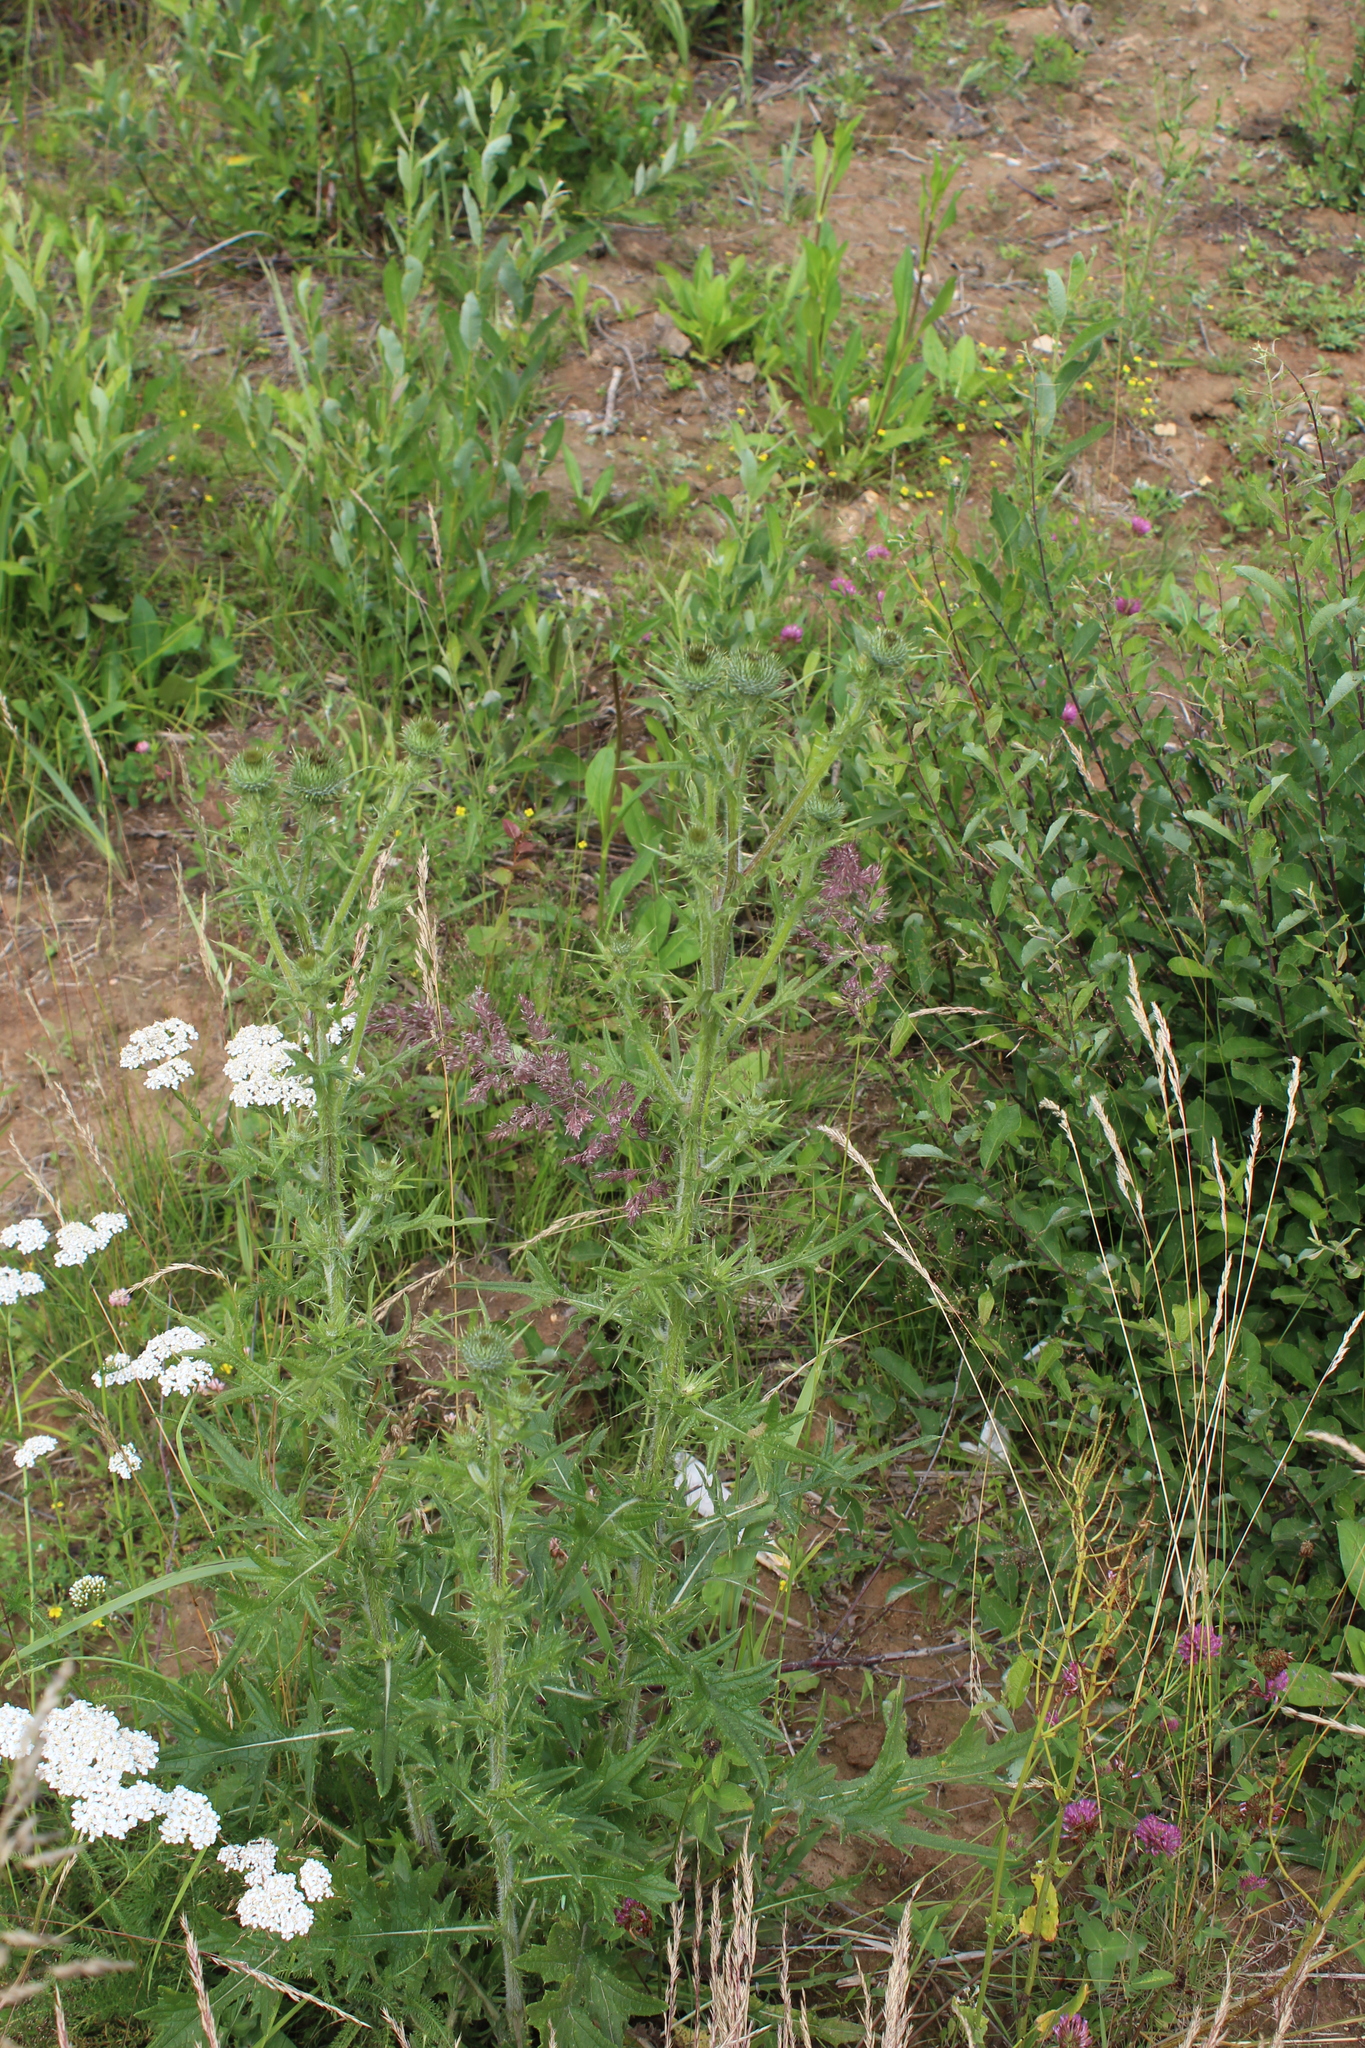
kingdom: Plantae
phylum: Tracheophyta
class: Magnoliopsida
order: Asterales
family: Asteraceae
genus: Cirsium
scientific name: Cirsium vulgare
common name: Bull thistle
